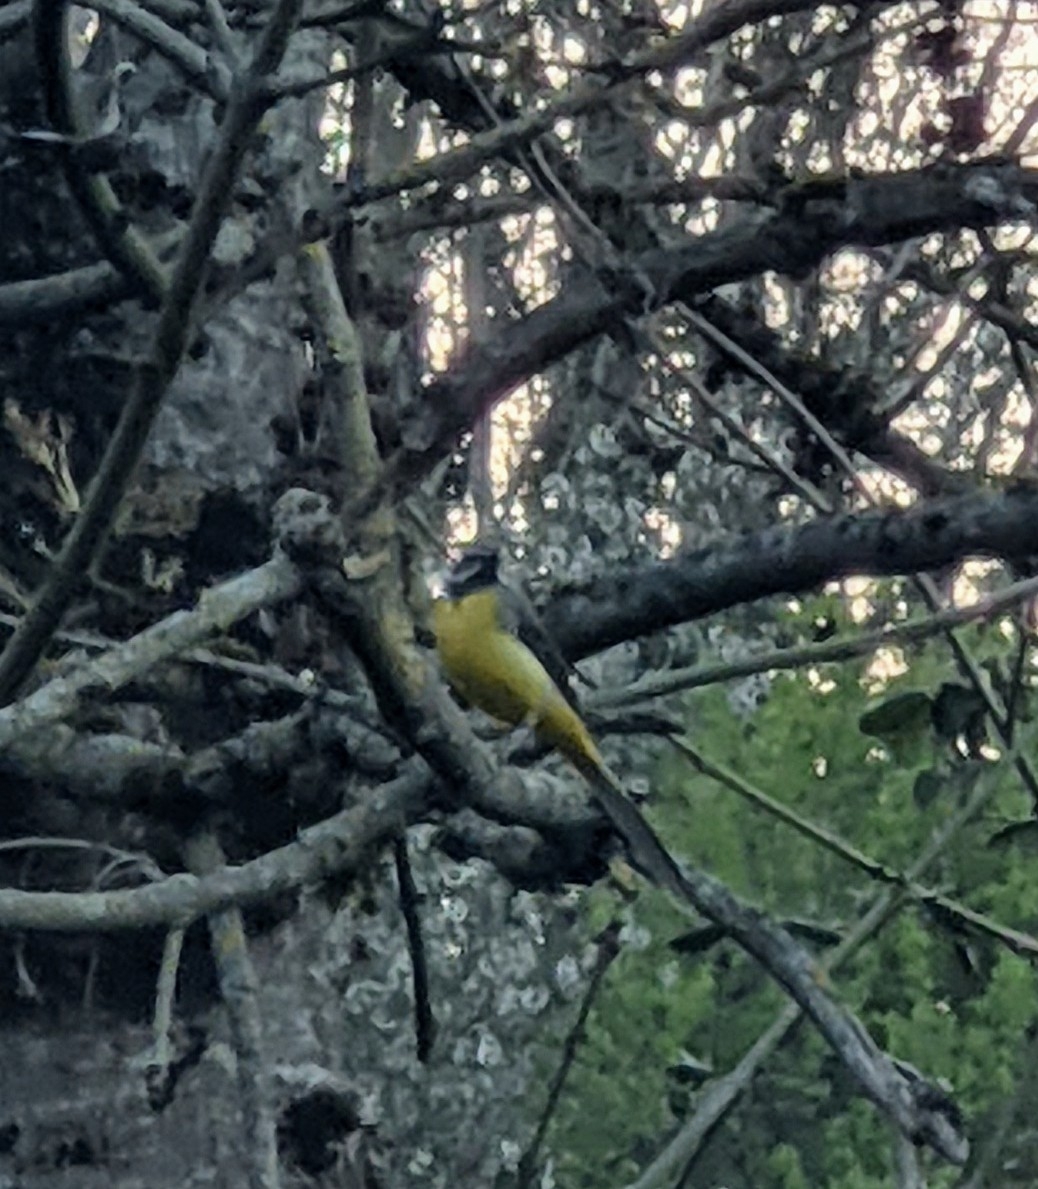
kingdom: Animalia
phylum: Chordata
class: Aves
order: Passeriformes
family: Motacillidae
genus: Motacilla
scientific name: Motacilla cinerea
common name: Grey wagtail
